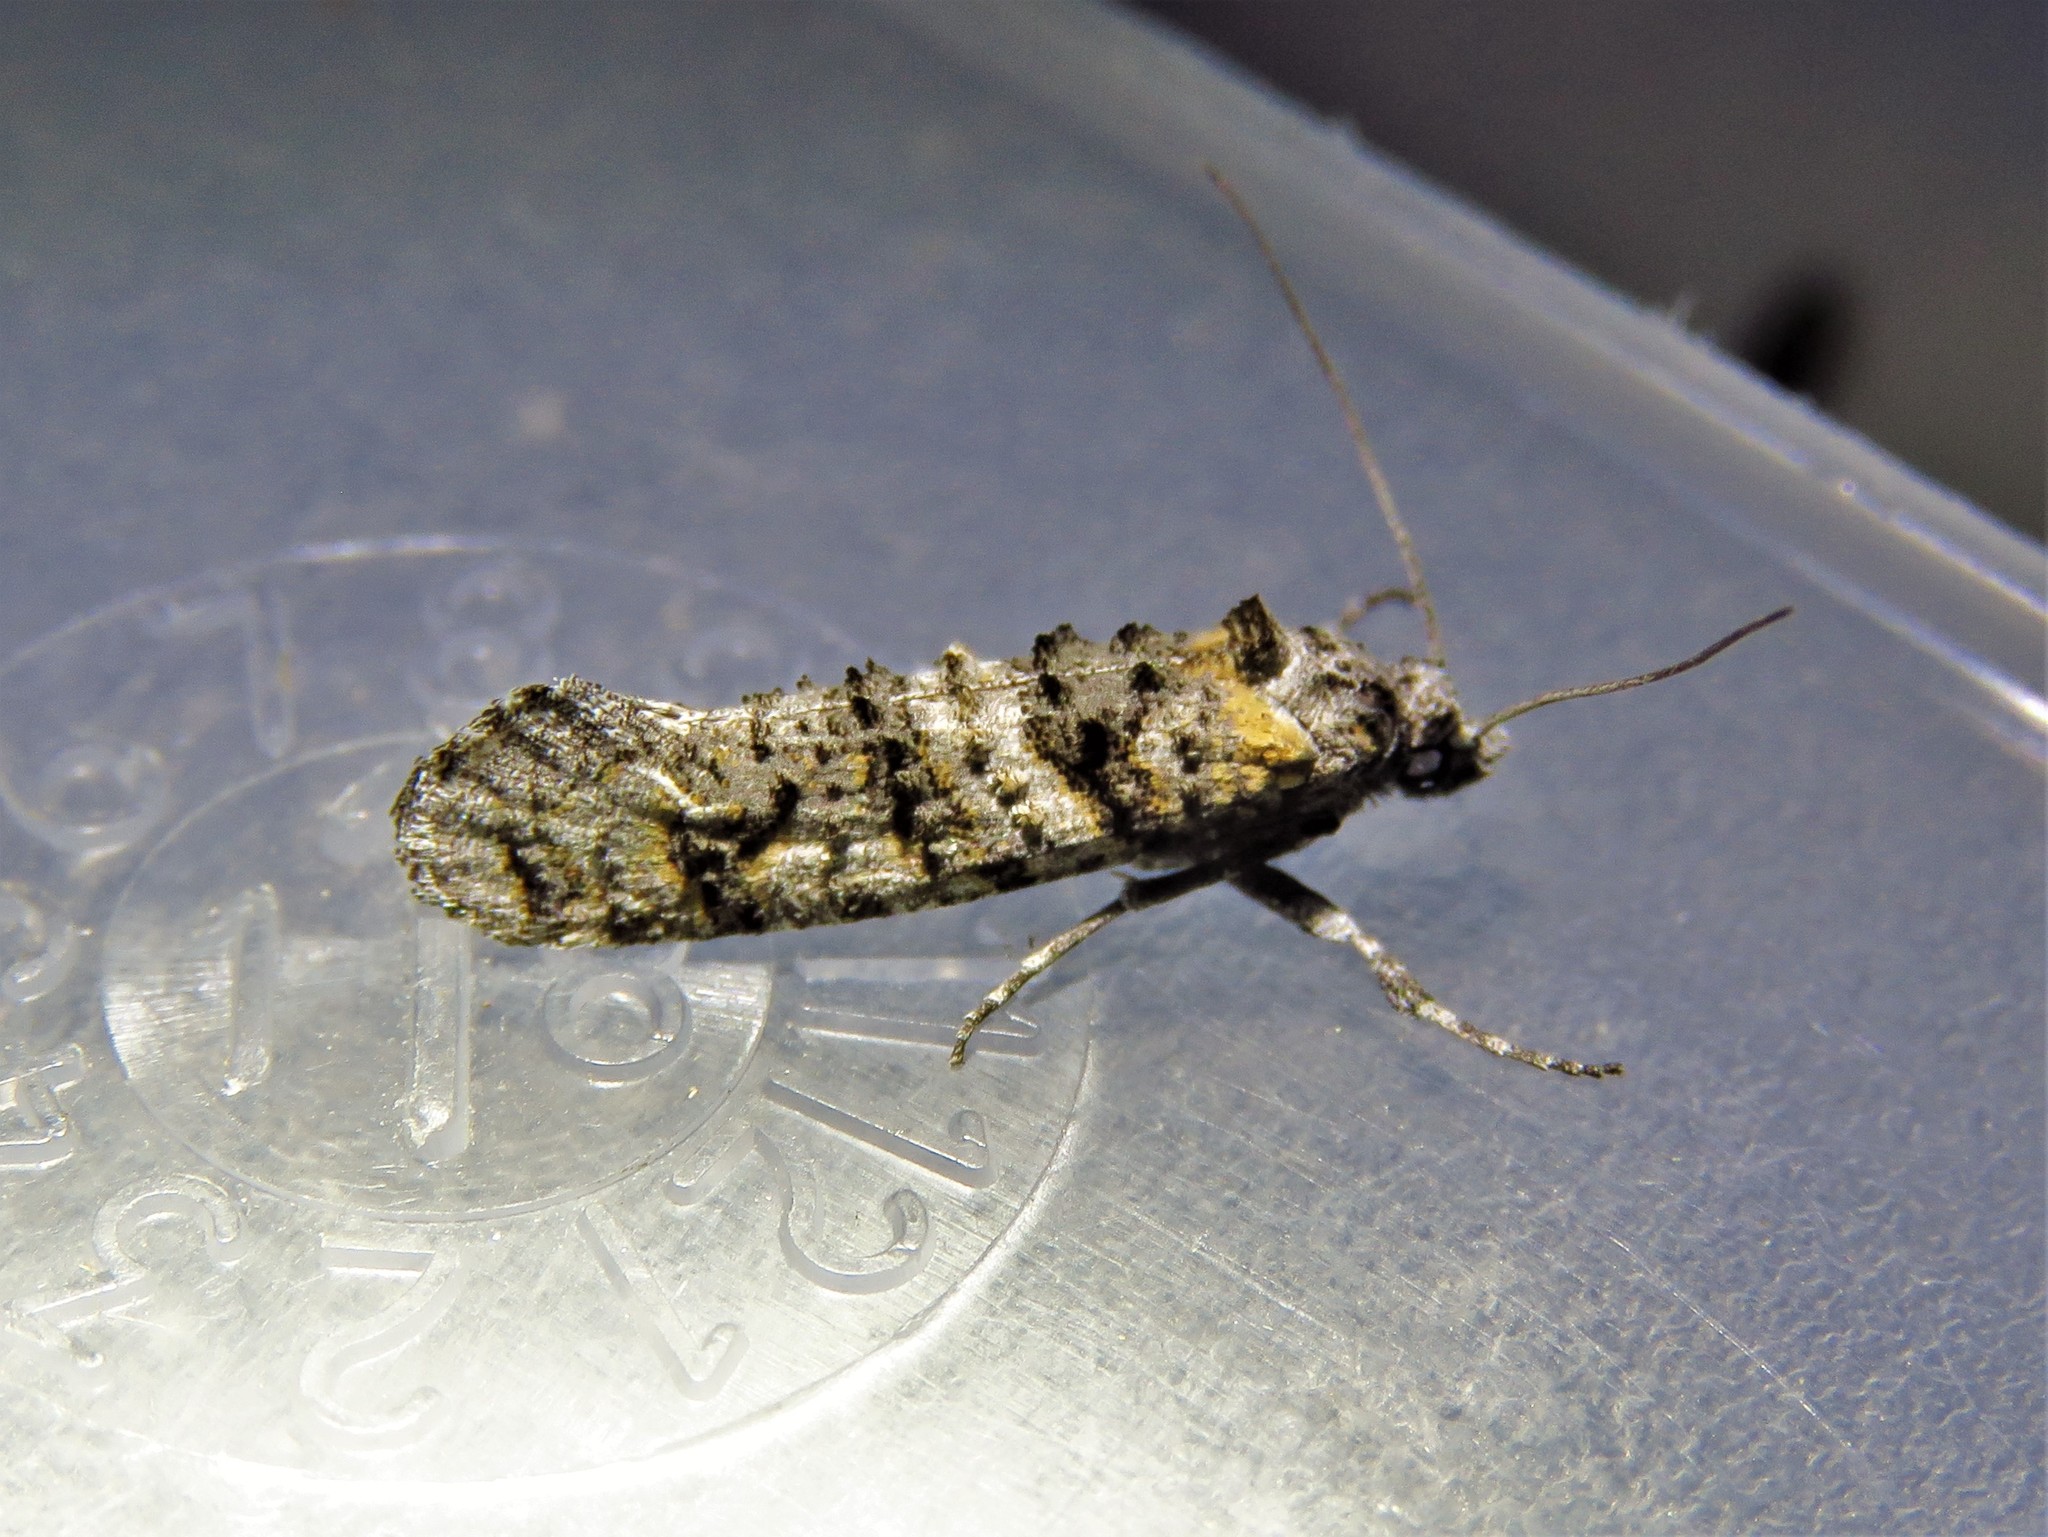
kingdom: Animalia
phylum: Arthropoda
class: Insecta
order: Lepidoptera
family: Tineidae
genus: Dyotopasta
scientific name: Dyotopasta yumaella
